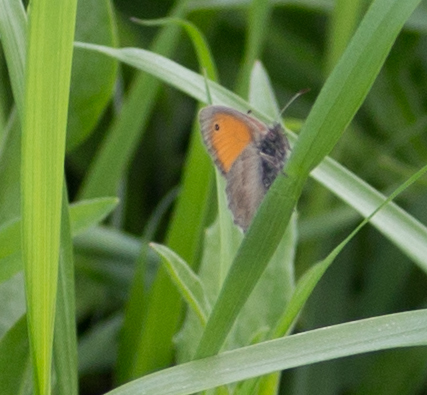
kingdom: Animalia
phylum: Arthropoda
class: Insecta
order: Lepidoptera
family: Nymphalidae
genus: Coenonympha
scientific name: Coenonympha pamphilus
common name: Small heath
